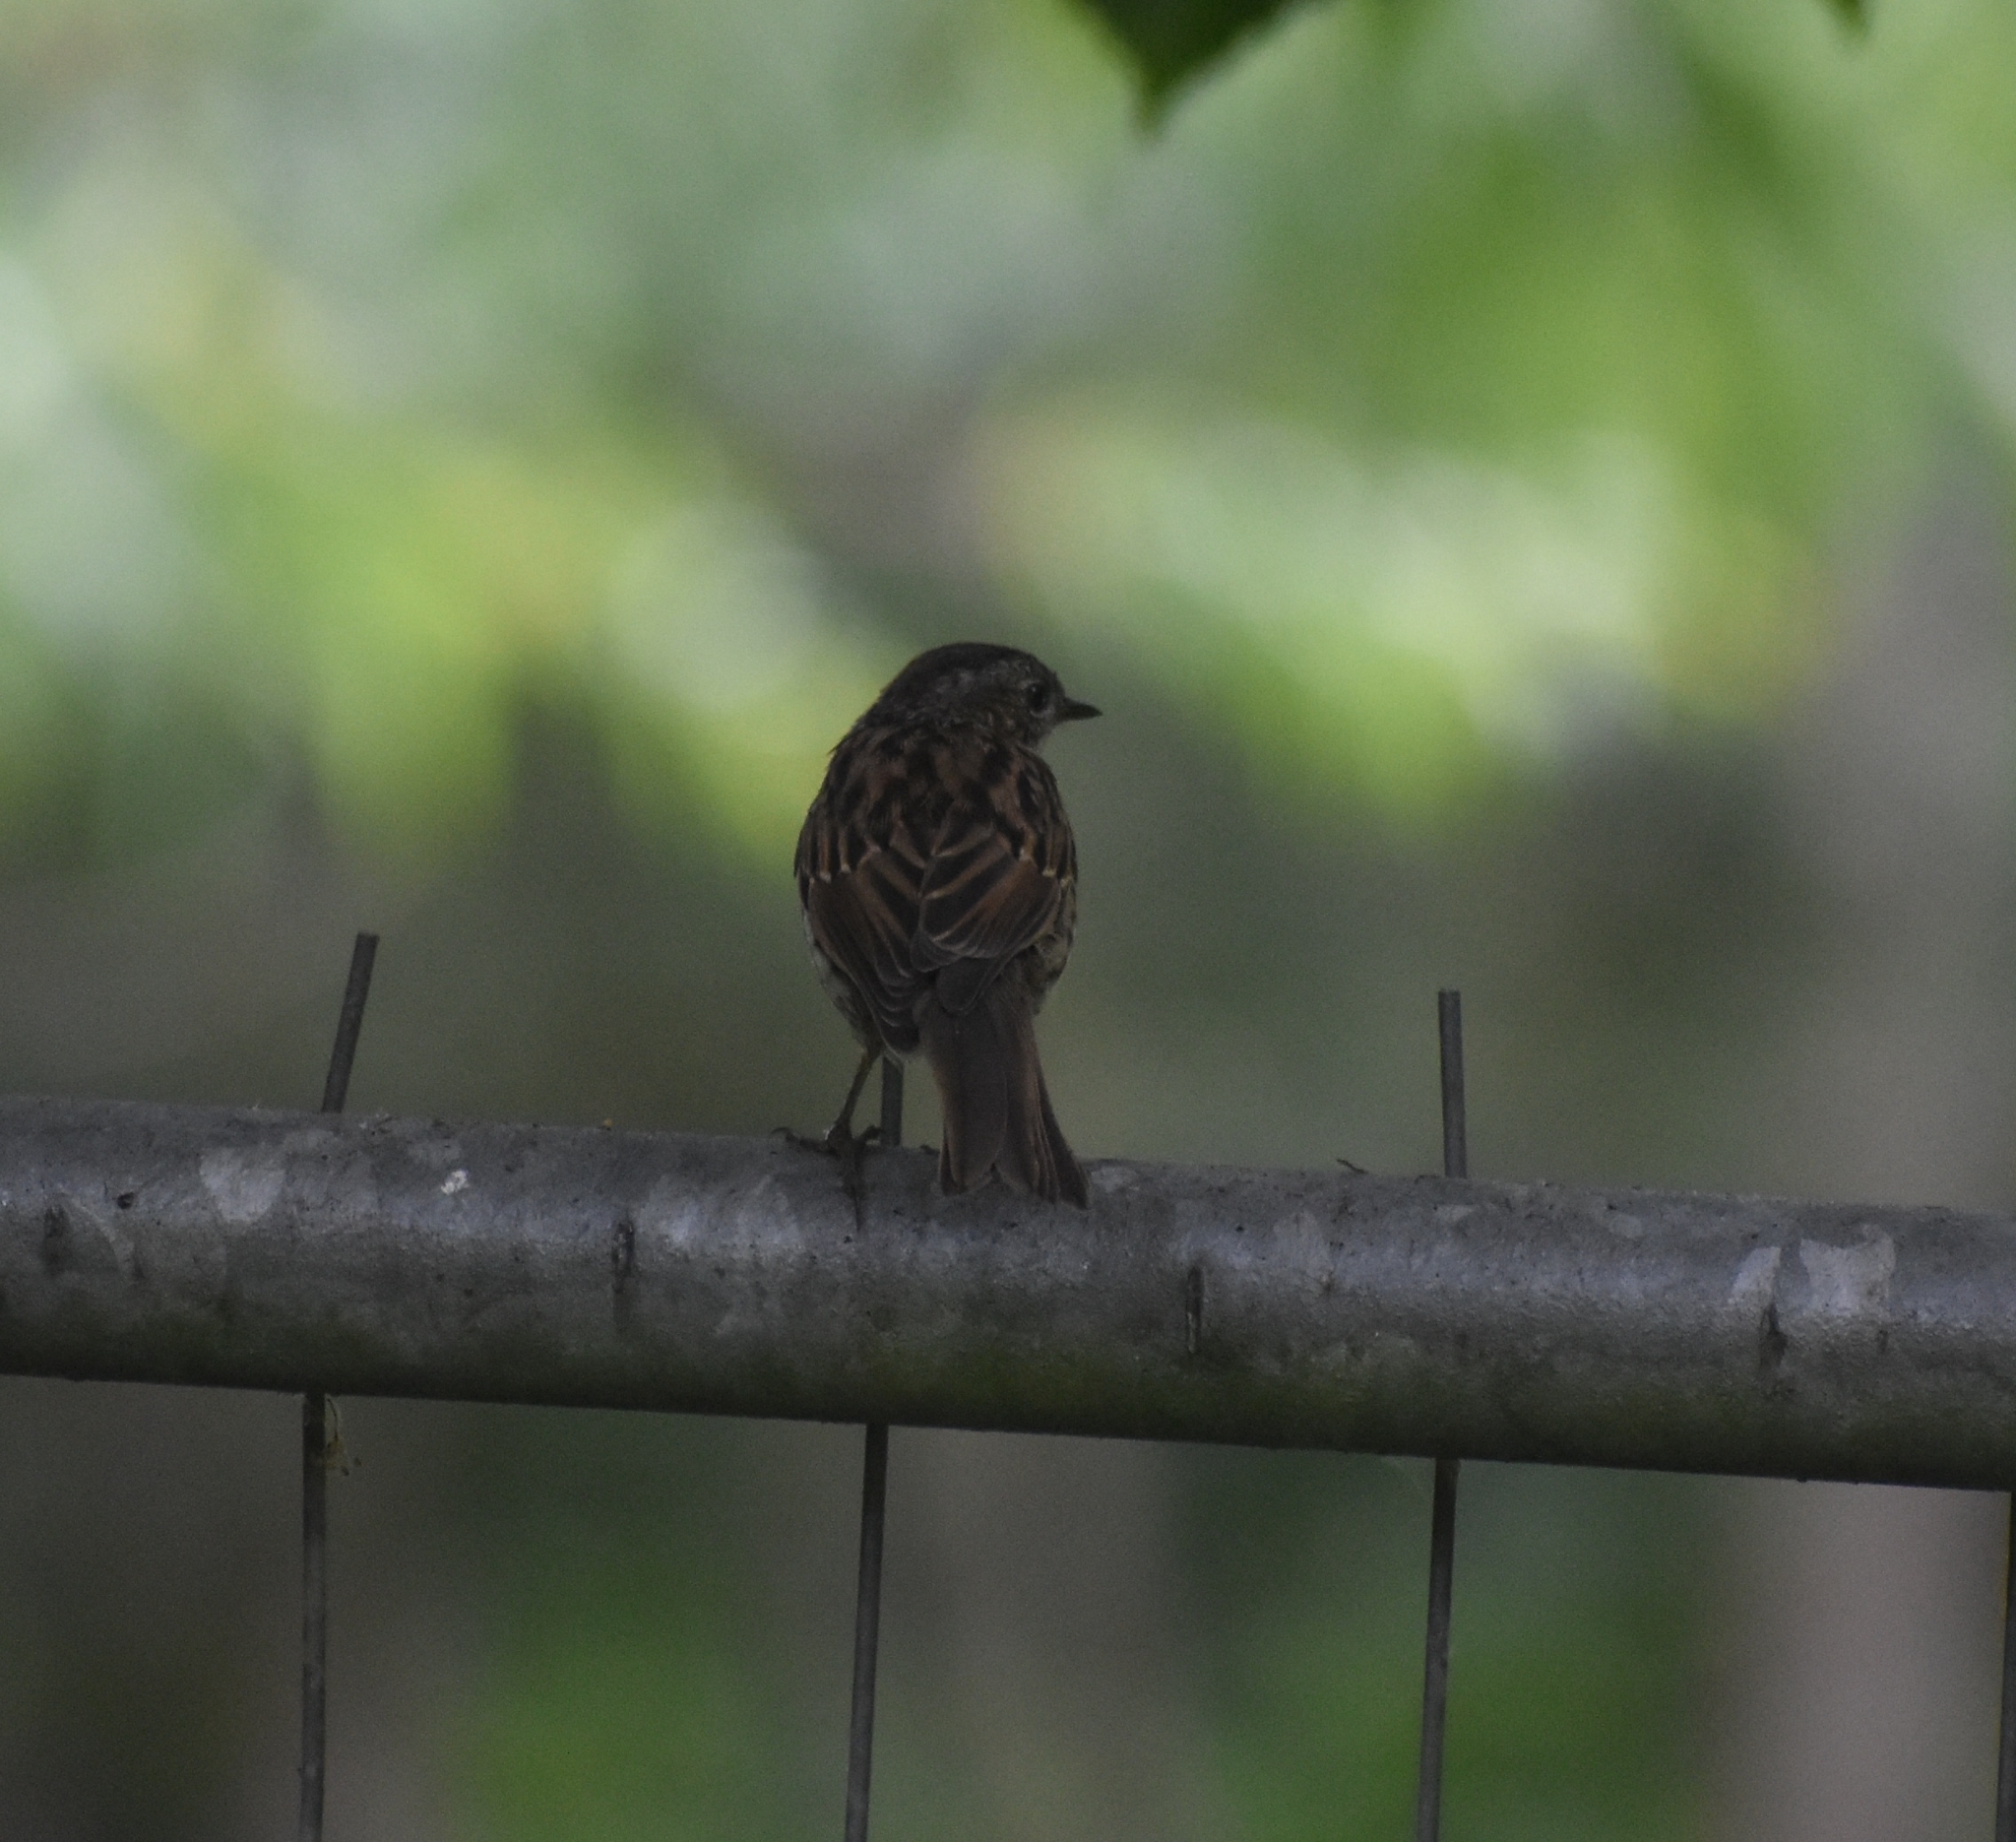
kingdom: Animalia
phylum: Chordata
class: Aves
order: Passeriformes
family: Prunellidae
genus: Prunella
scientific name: Prunella modularis
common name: Dunnock
